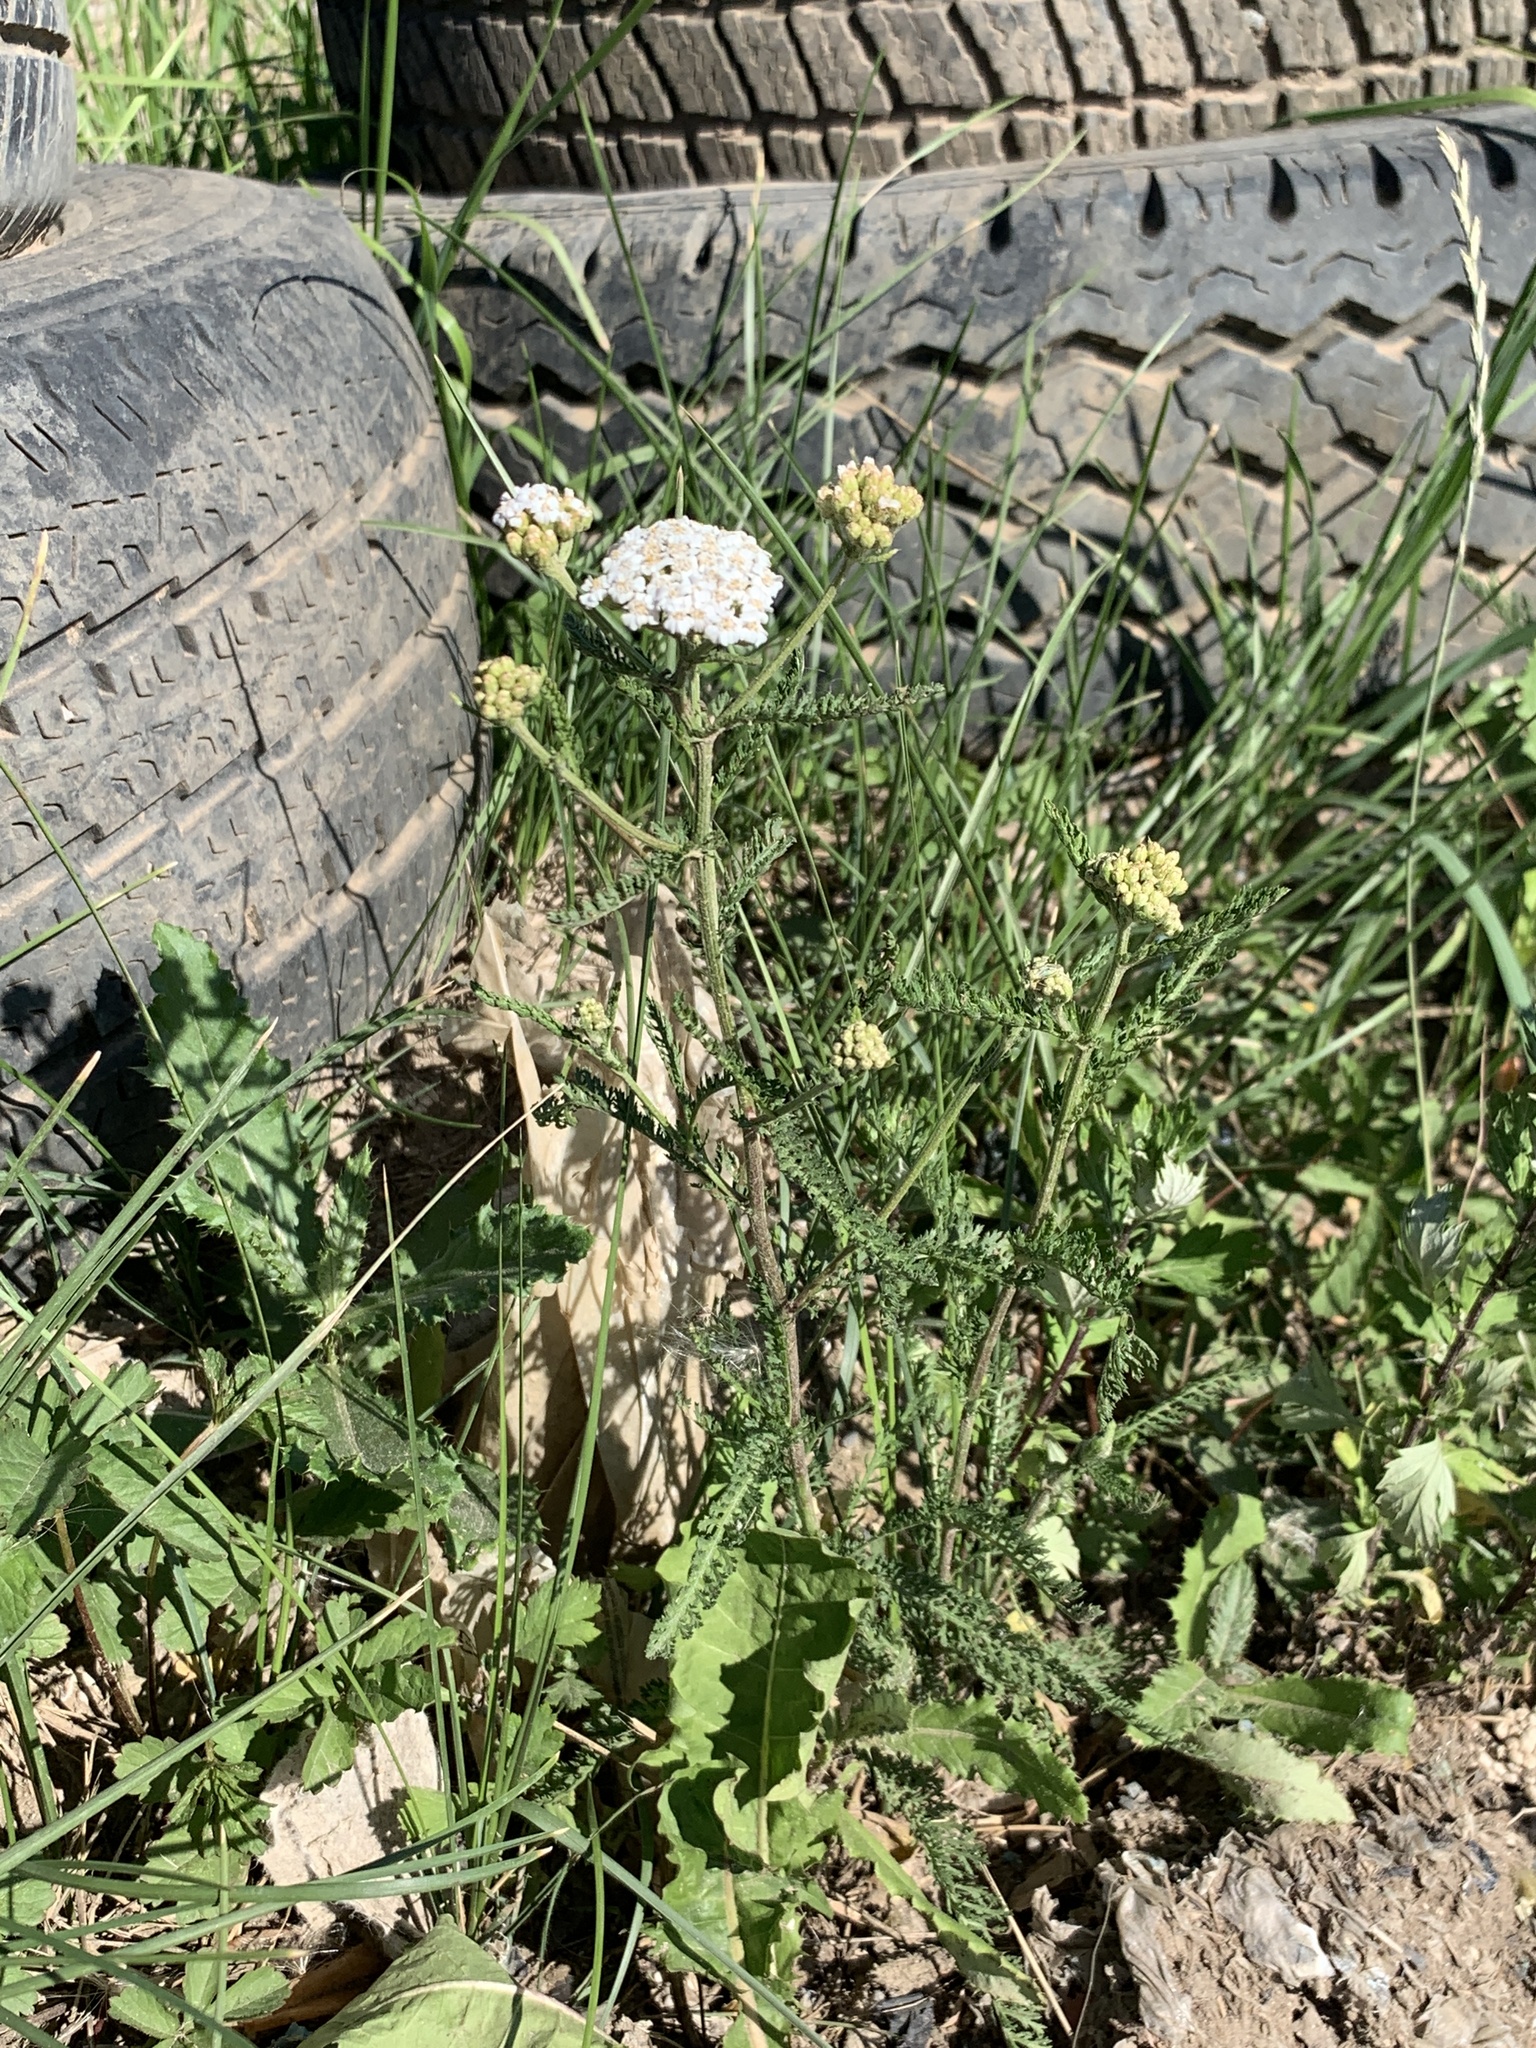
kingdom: Plantae
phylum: Tracheophyta
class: Magnoliopsida
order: Asterales
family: Asteraceae
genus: Achillea
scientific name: Achillea millefolium
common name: Yarrow
